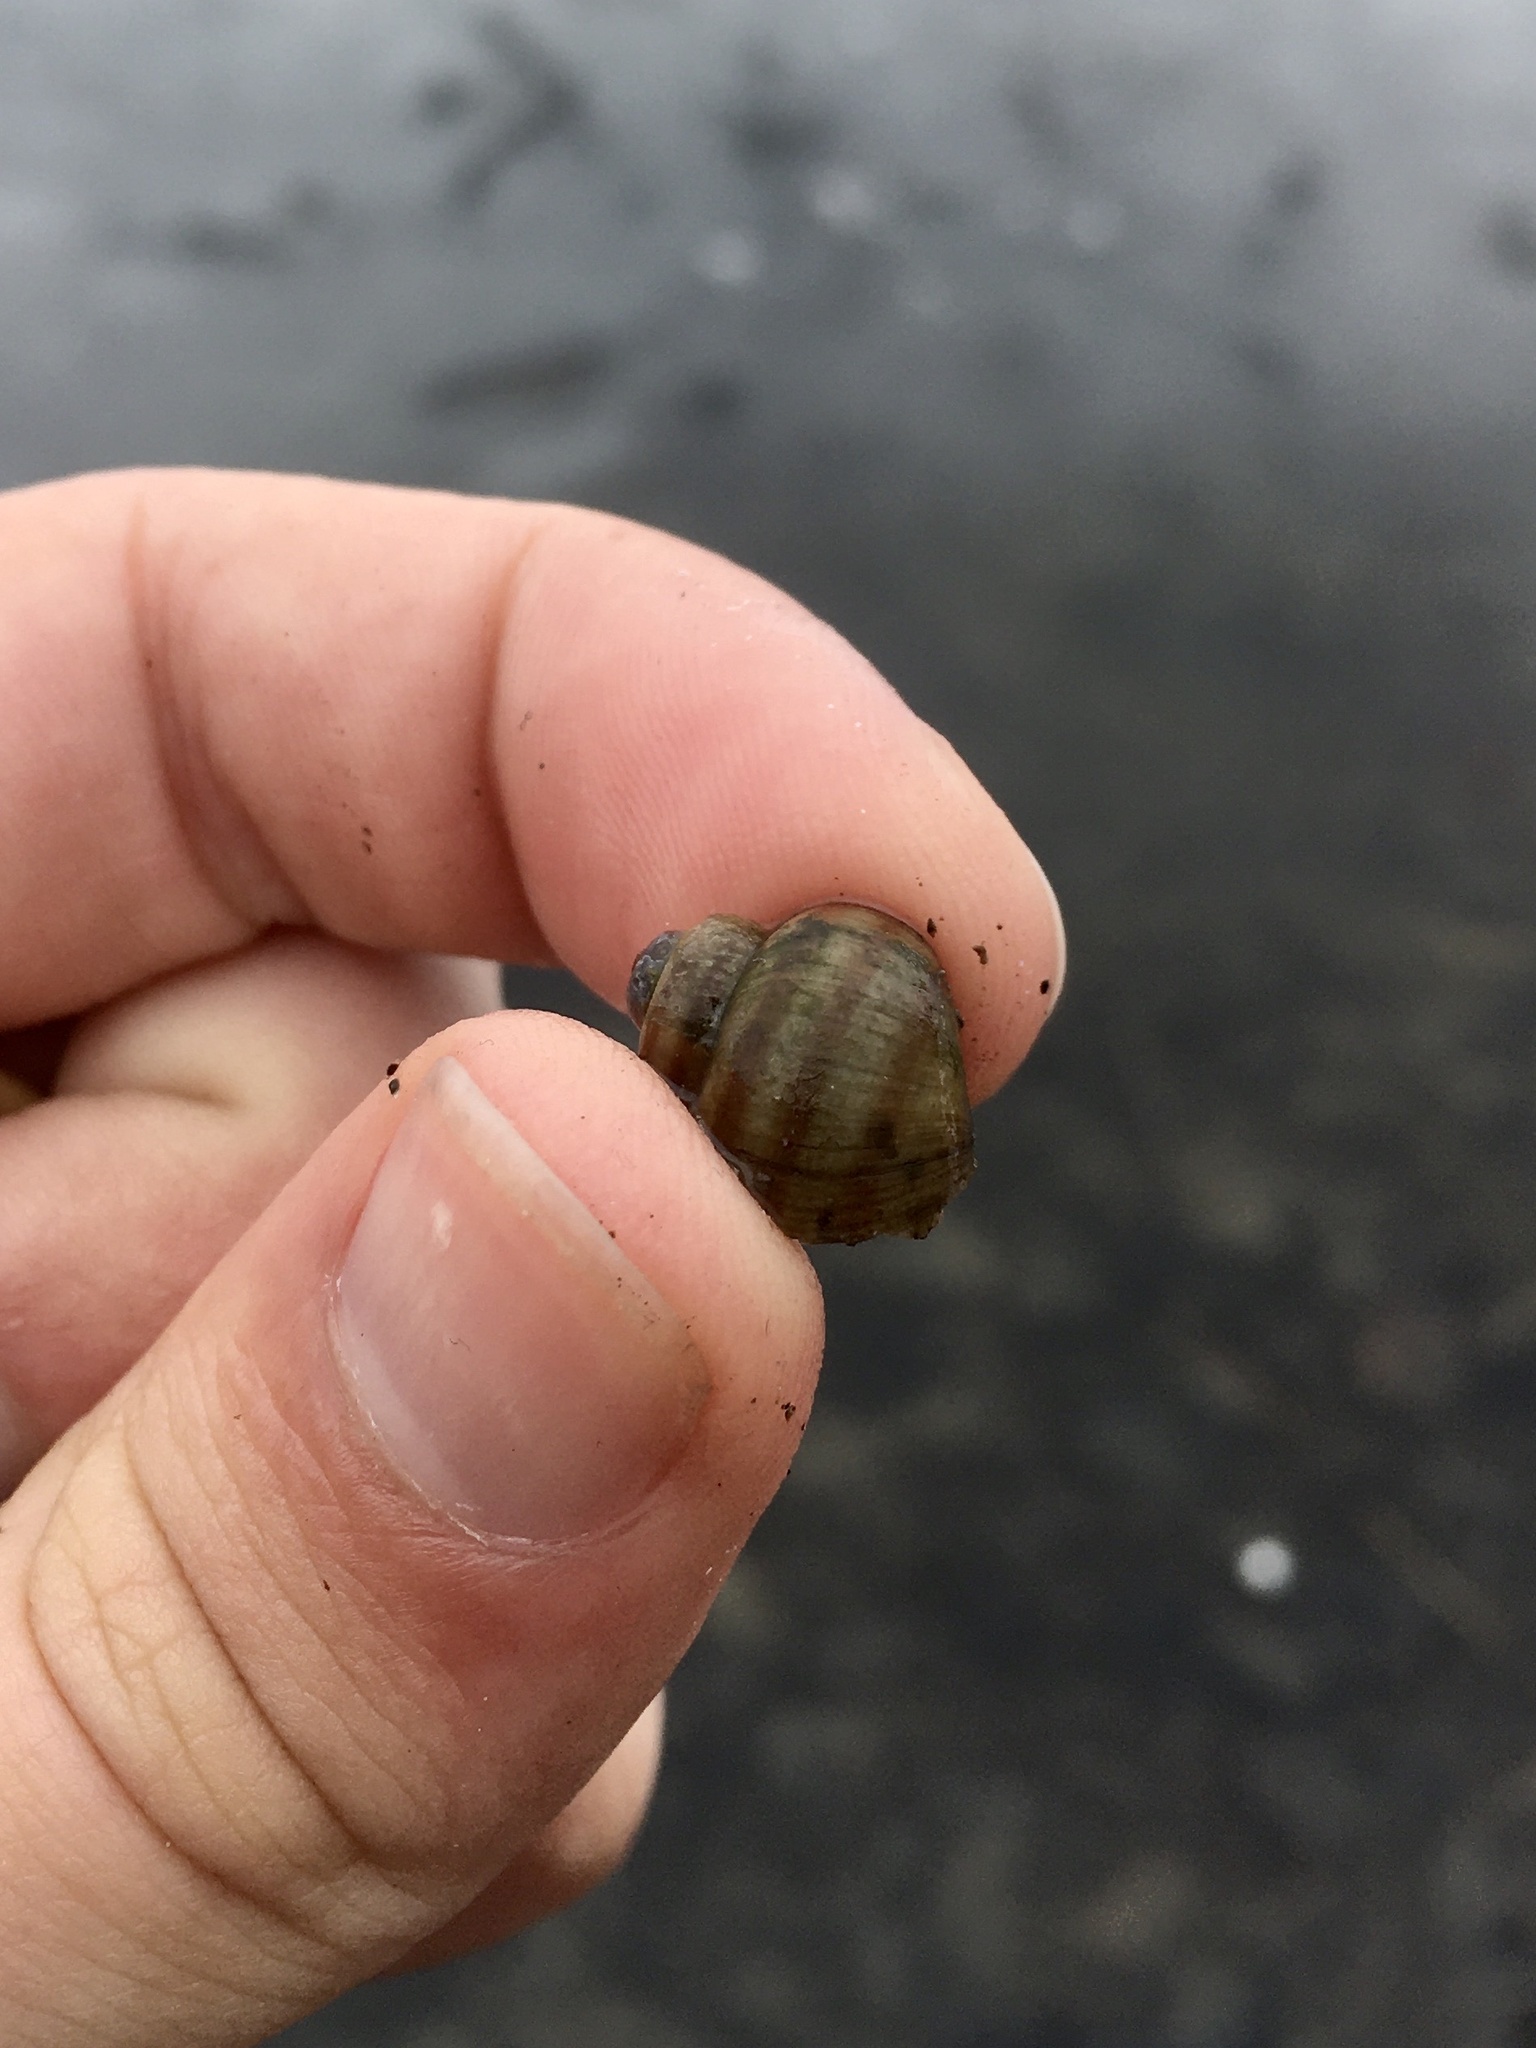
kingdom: Animalia
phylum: Mollusca
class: Gastropoda
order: Architaenioglossa
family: Viviparidae
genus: Callinina
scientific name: Callinina georgiana
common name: Banded mystery snail
